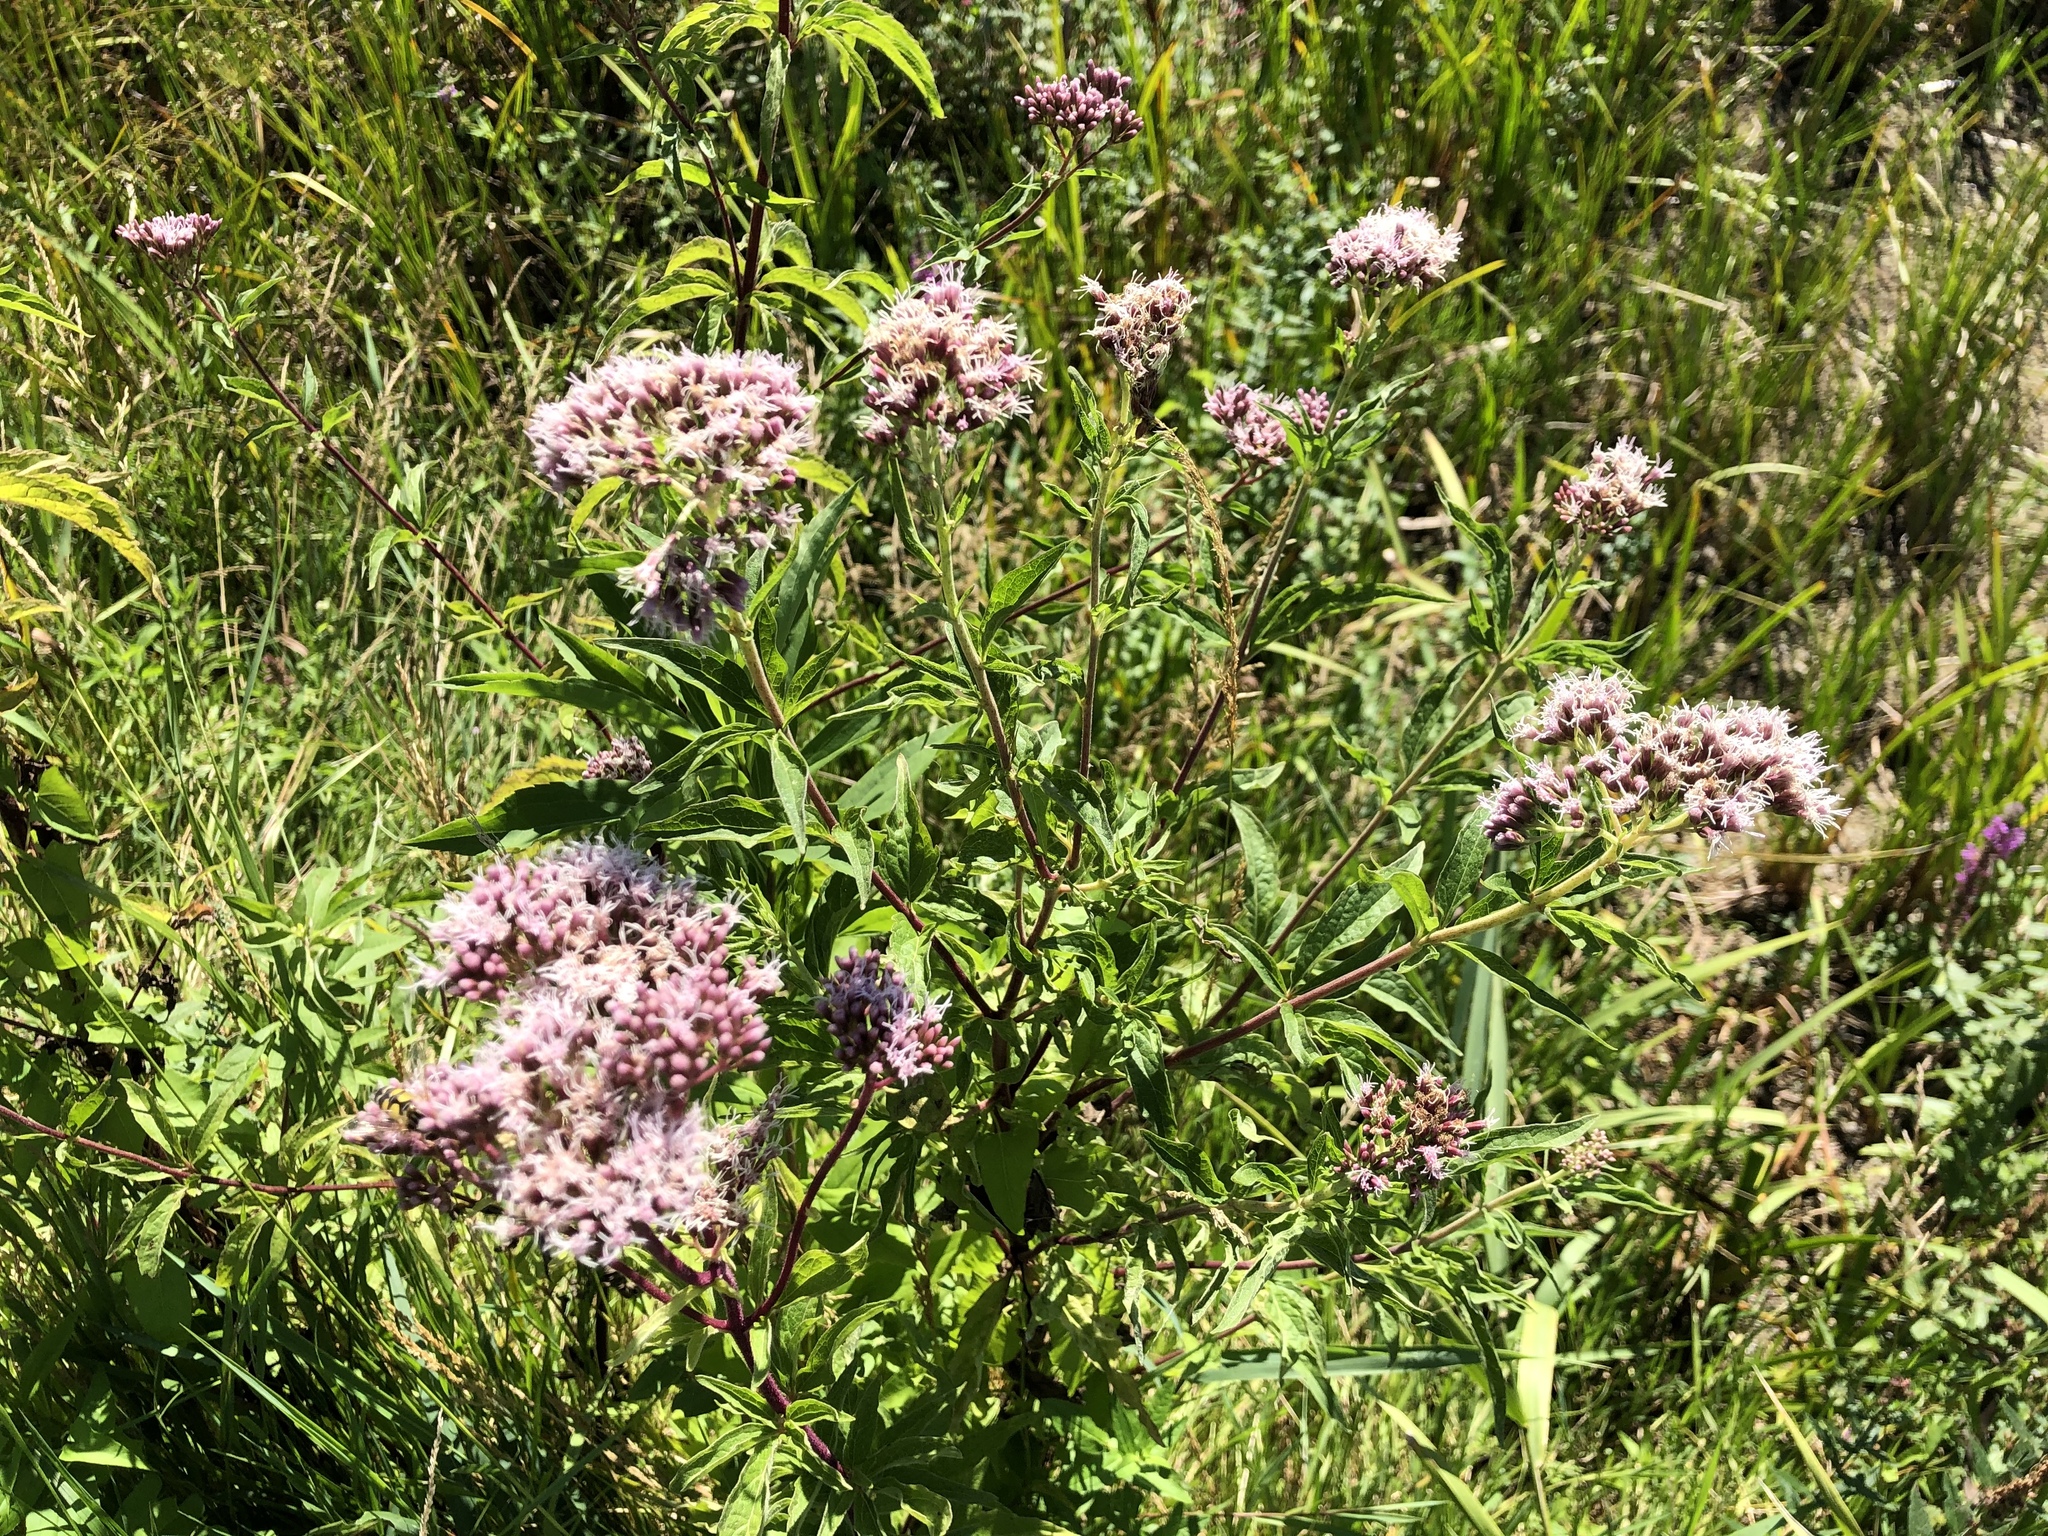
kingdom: Plantae
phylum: Tracheophyta
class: Magnoliopsida
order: Asterales
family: Asteraceae
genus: Eupatorium
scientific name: Eupatorium cannabinum
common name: Hemp-agrimony
